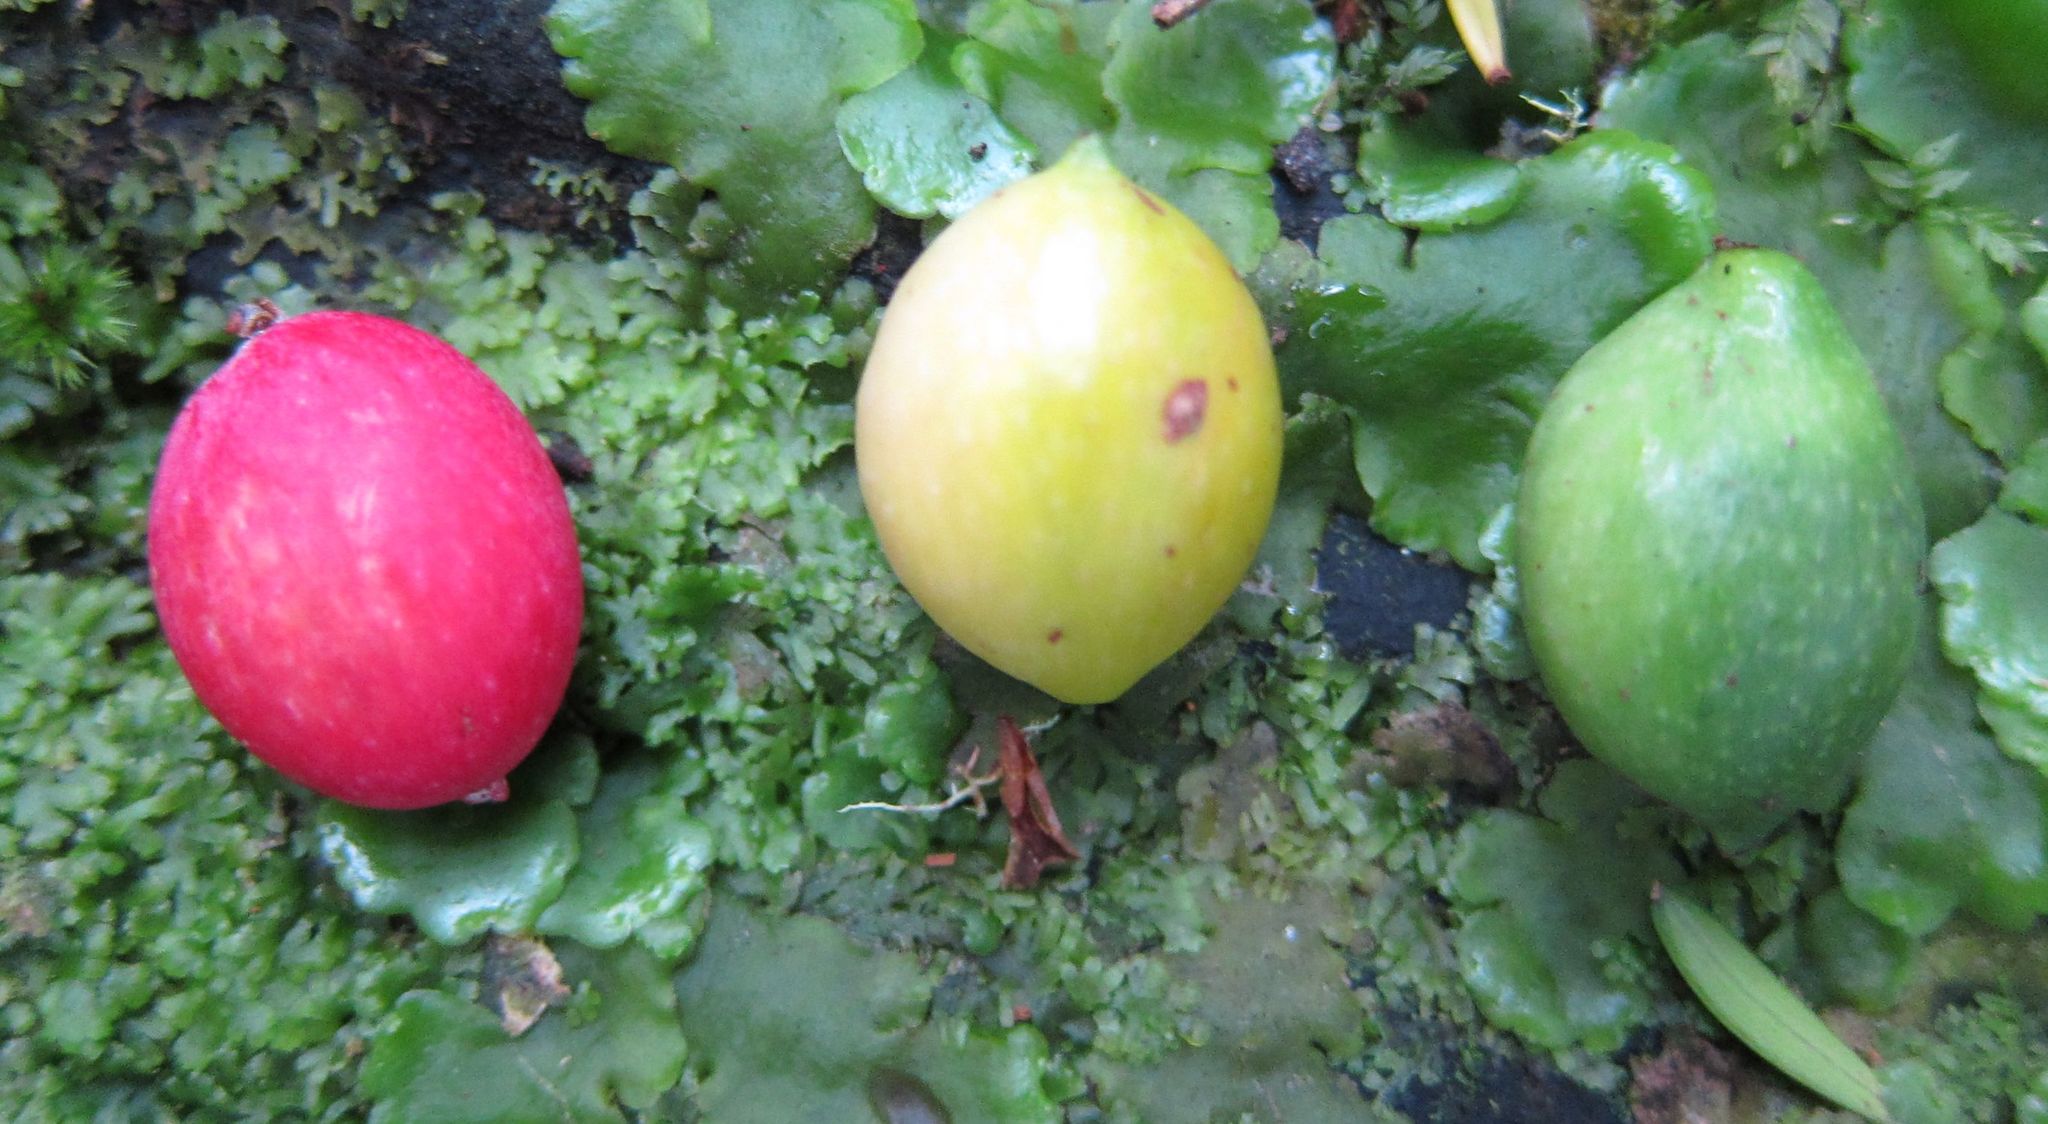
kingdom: Plantae
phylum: Tracheophyta
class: Pinopsida
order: Pinales
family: Podocarpaceae
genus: Prumnopitys
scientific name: Prumnopitys ferruginea
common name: Brown pine
